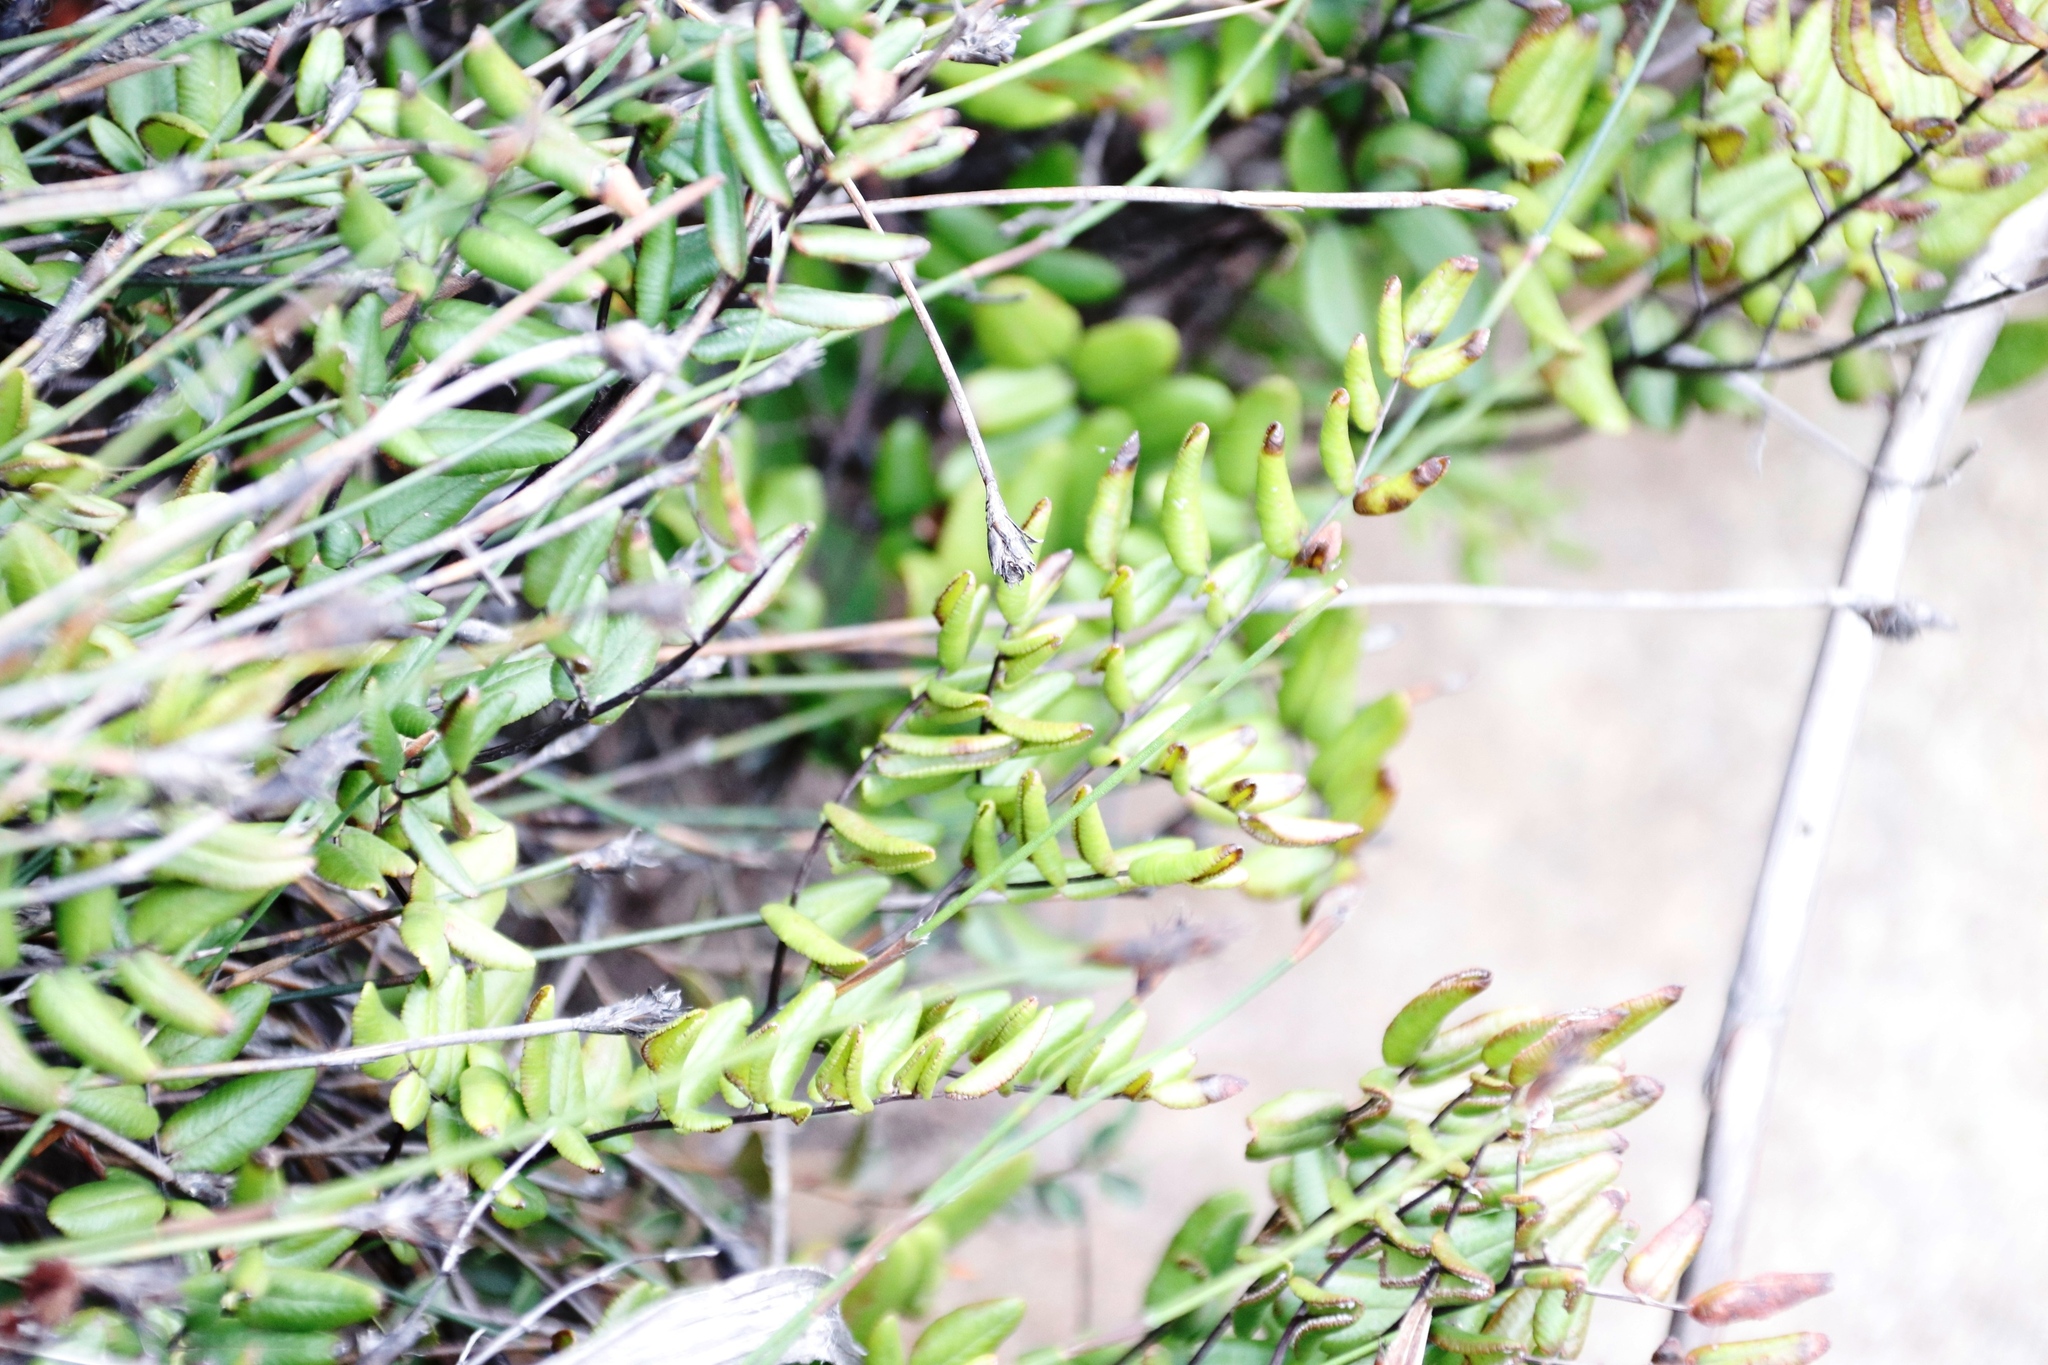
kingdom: Plantae
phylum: Tracheophyta
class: Polypodiopsida
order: Polypodiales
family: Pteridaceae
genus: Pellaea
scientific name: Pellaea pteroides
